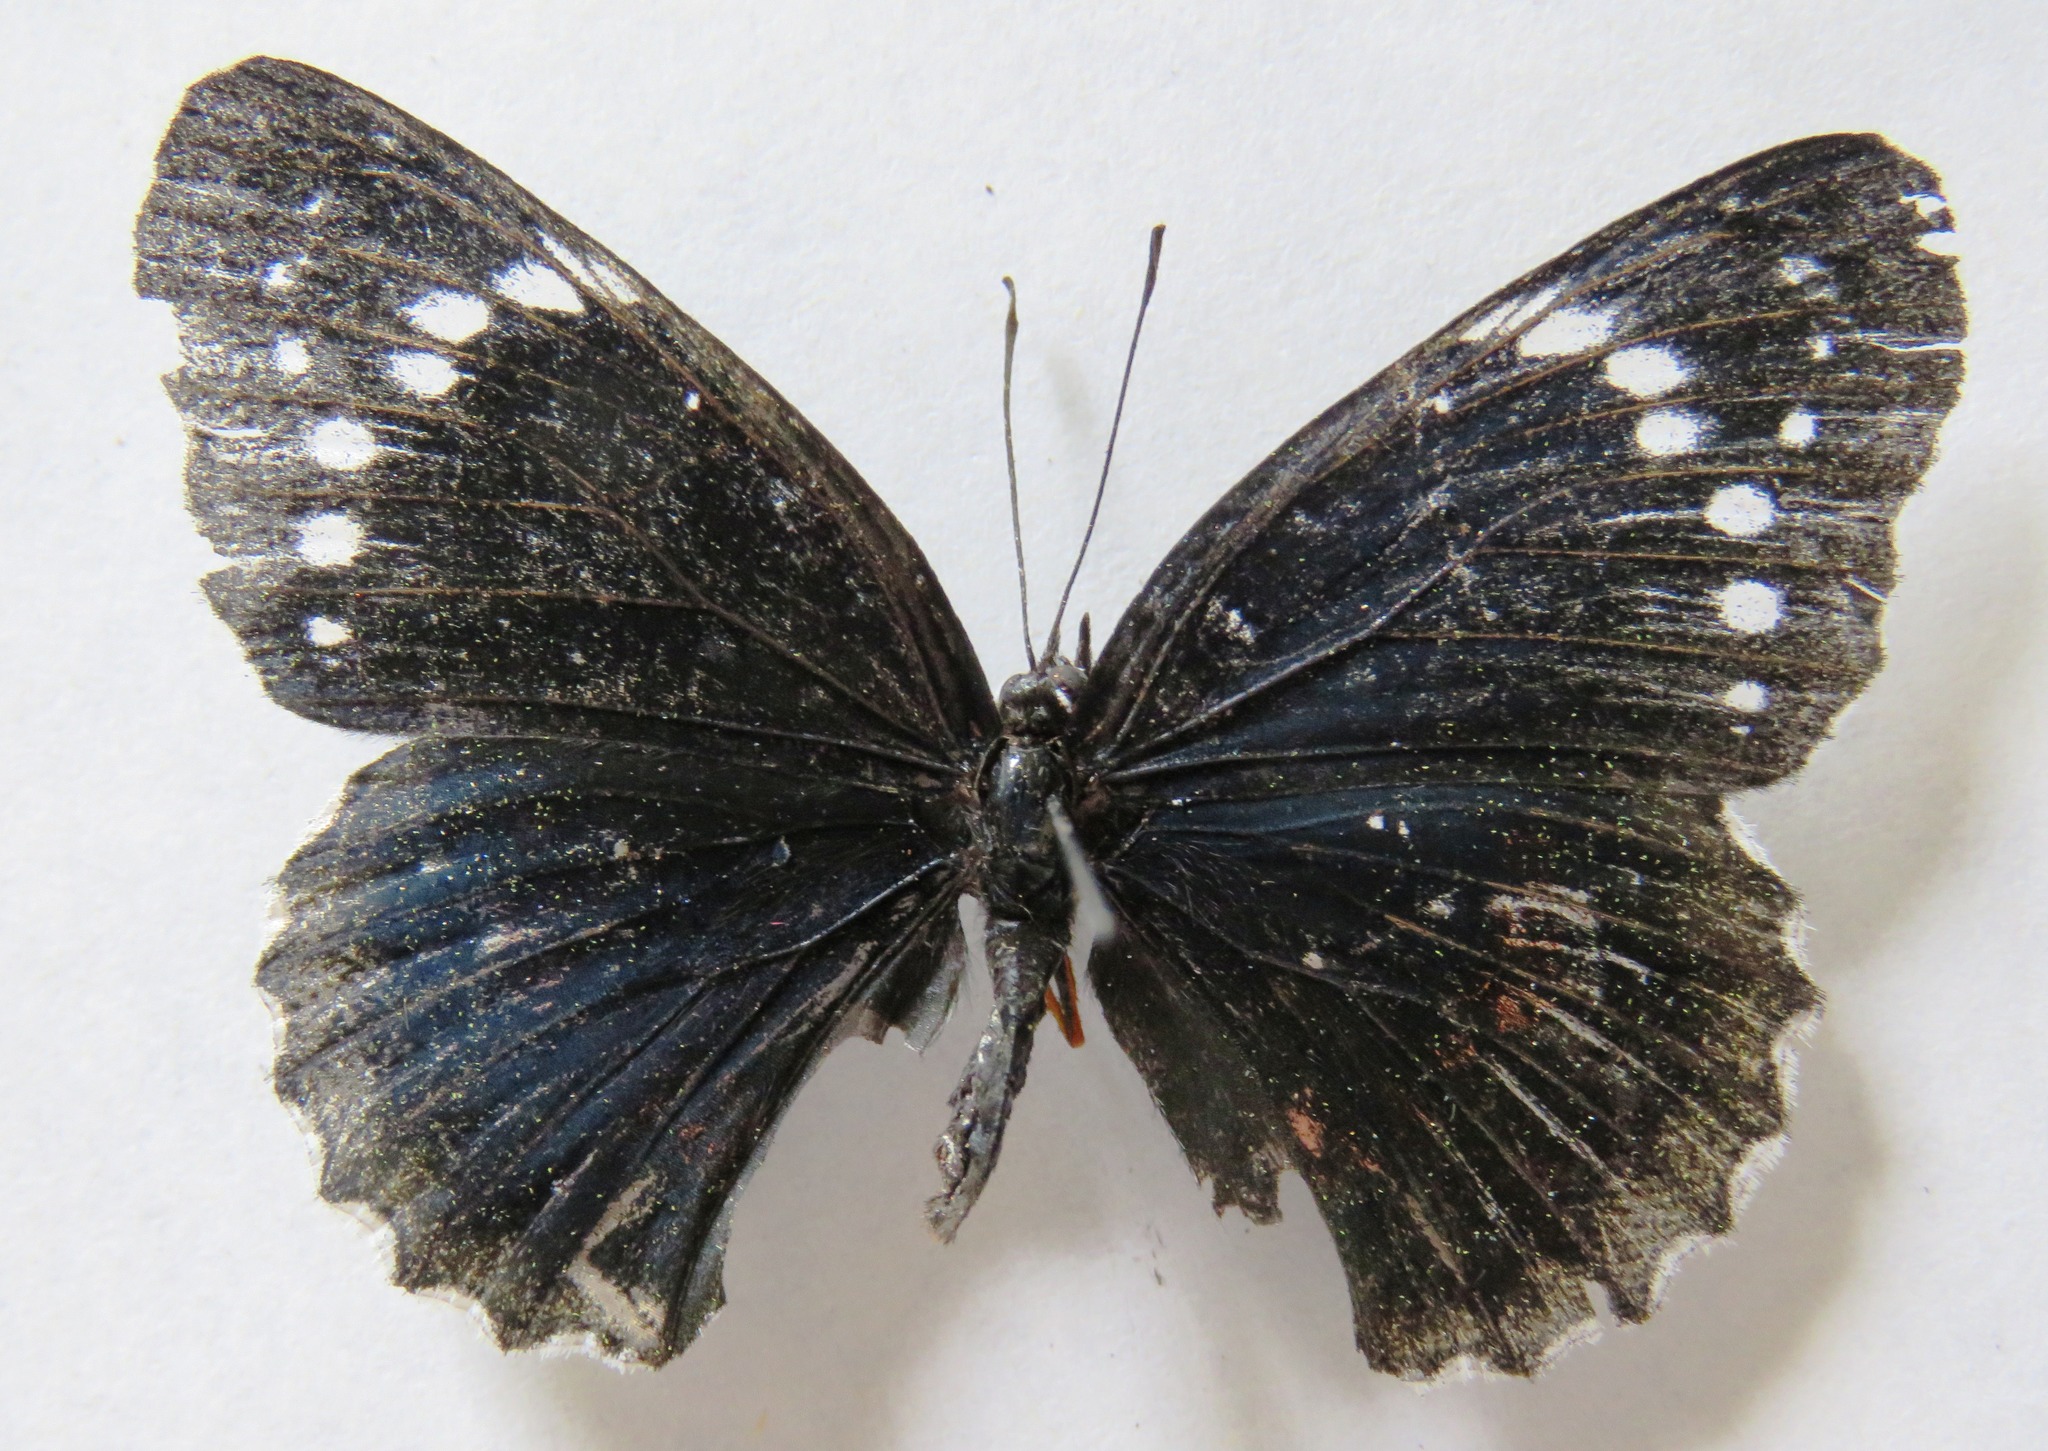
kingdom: Animalia
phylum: Arthropoda
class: Insecta
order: Lepidoptera
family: Nymphalidae
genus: Chlosyne
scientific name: Chlosyne hippodrome
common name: Simple patch
